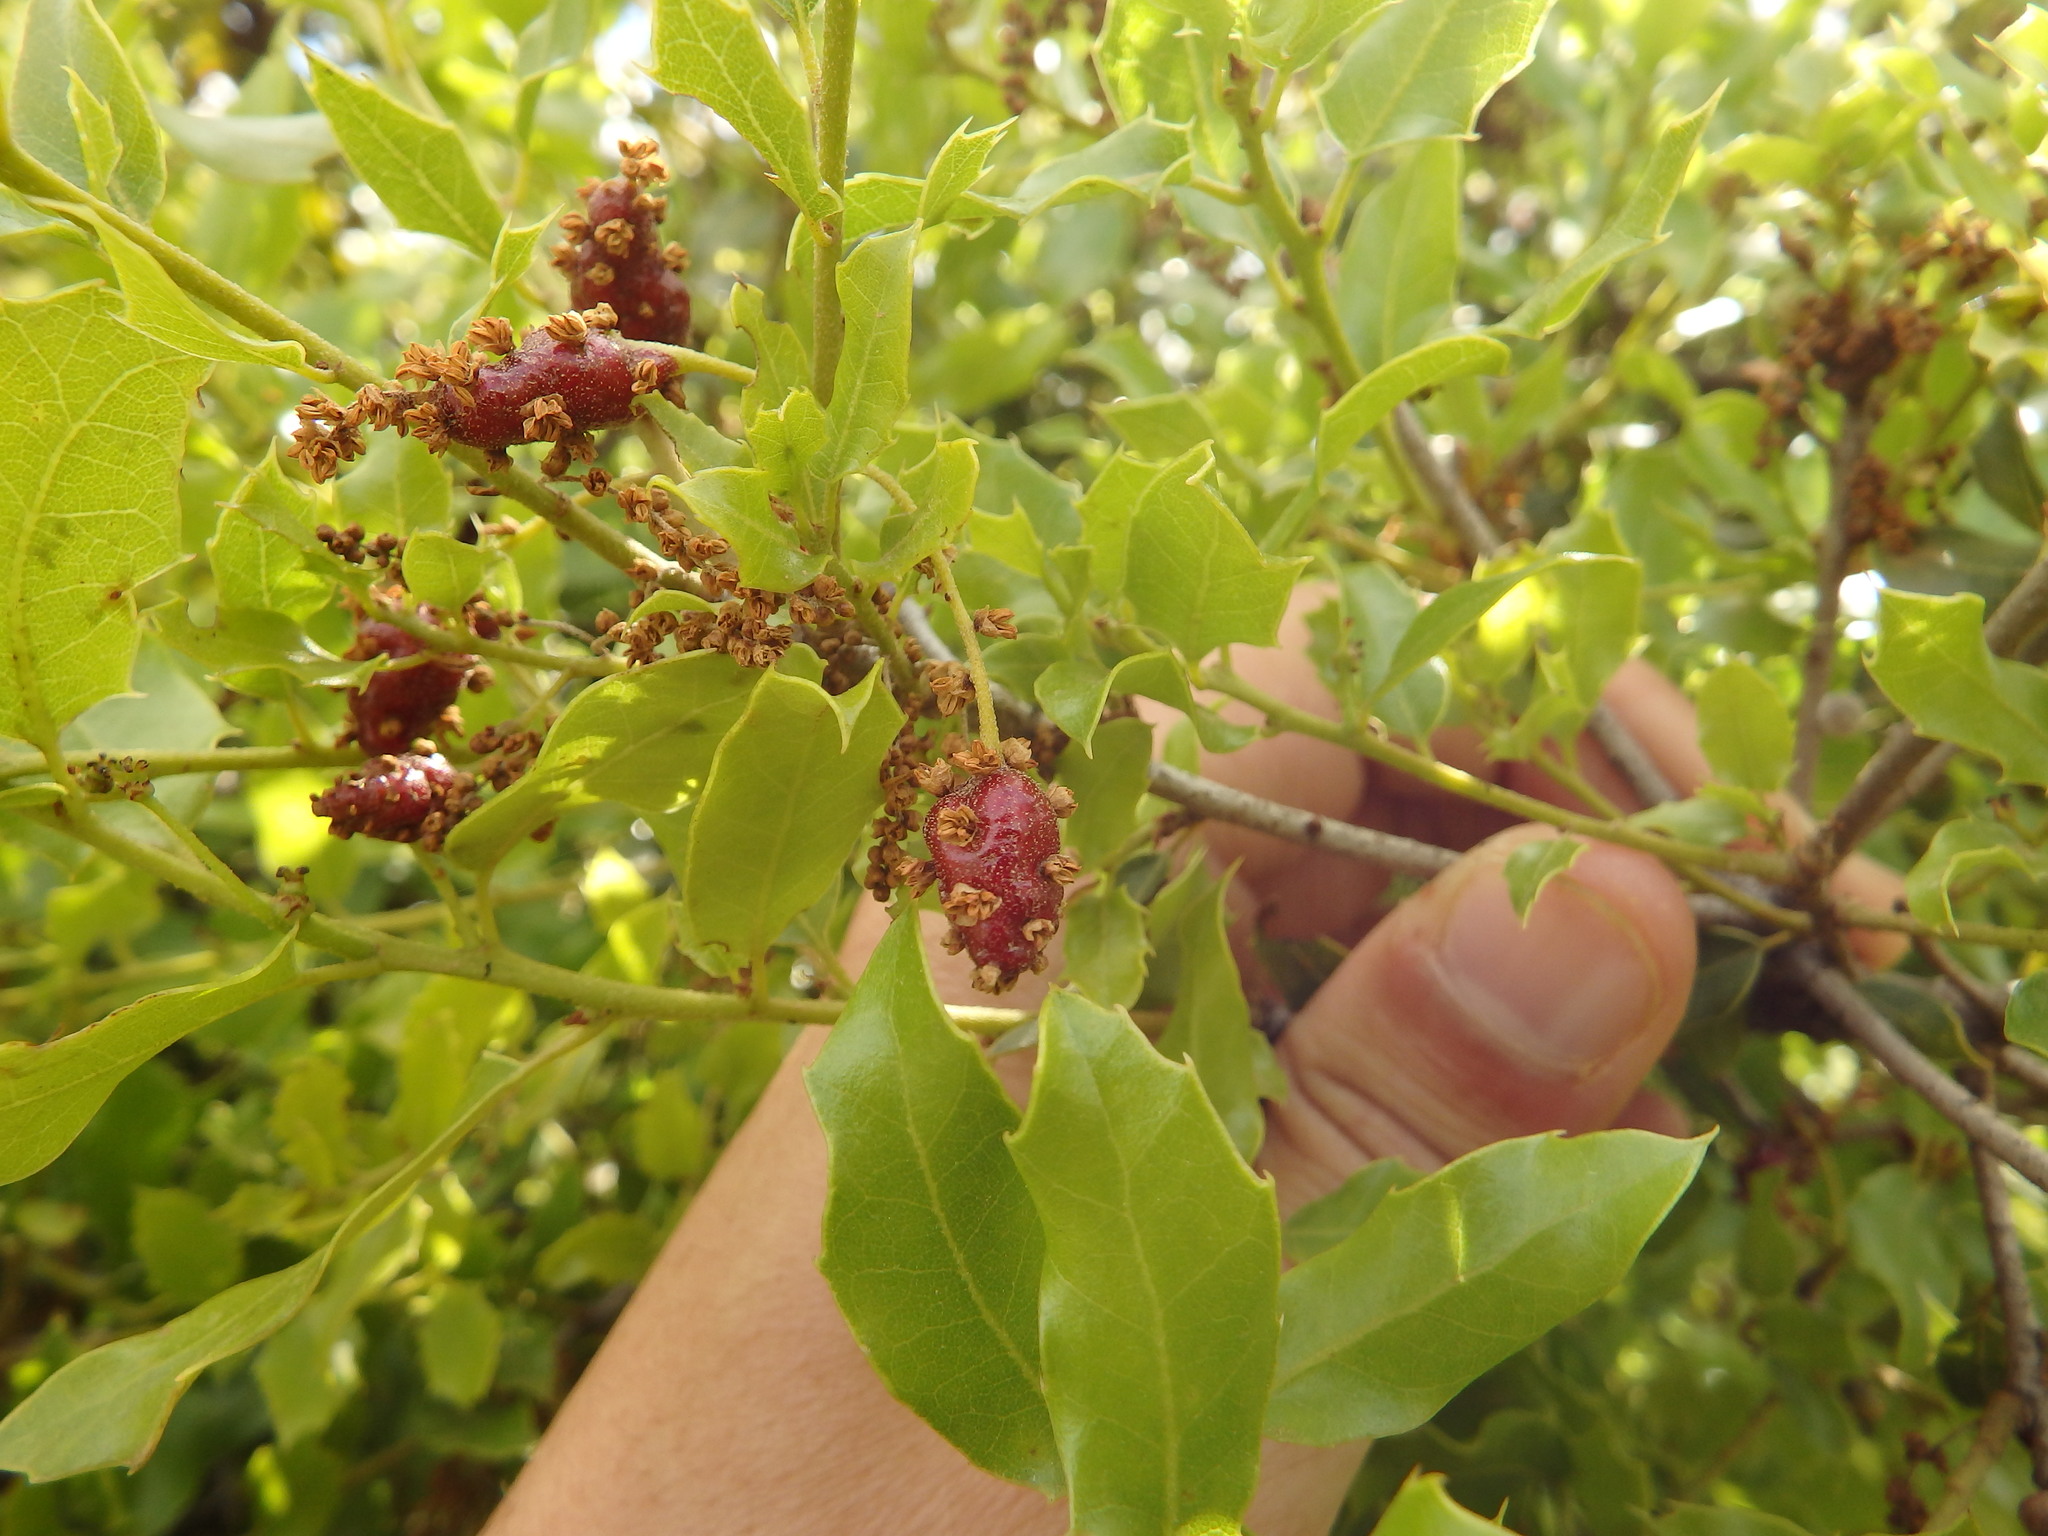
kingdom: Animalia
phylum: Arthropoda
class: Insecta
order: Hymenoptera
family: Cynipidae
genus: Plagiotrochus
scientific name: Plagiotrochus quercusilicis
